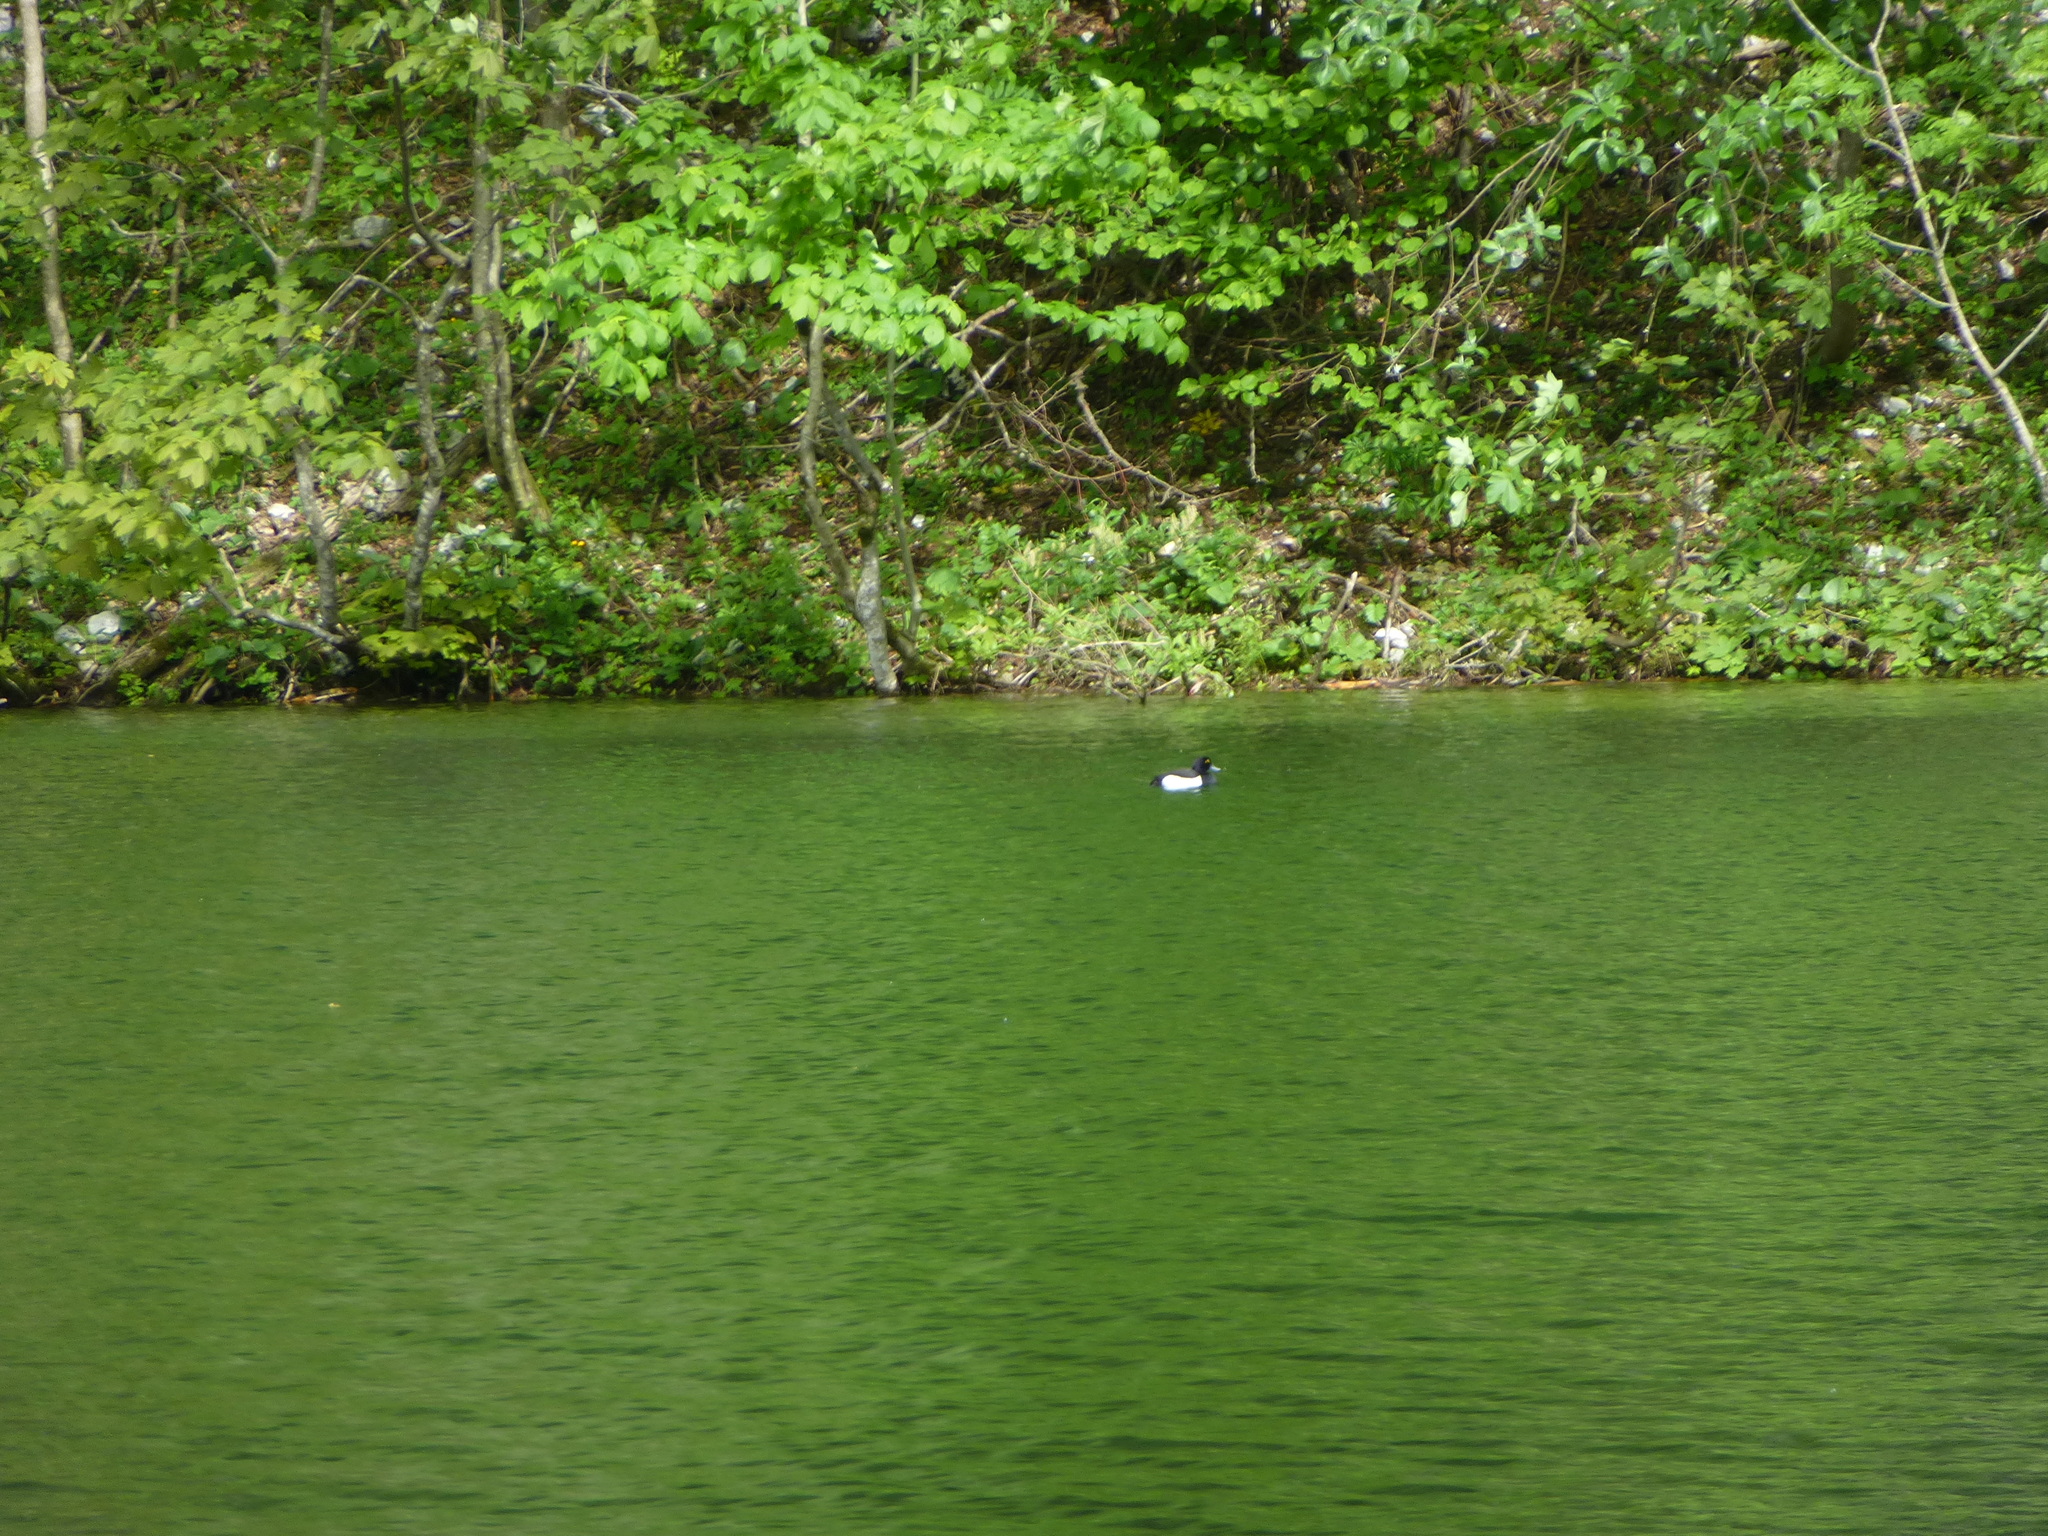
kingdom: Animalia
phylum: Chordata
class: Aves
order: Anseriformes
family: Anatidae
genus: Aythya
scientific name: Aythya fuligula
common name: Tufted duck
